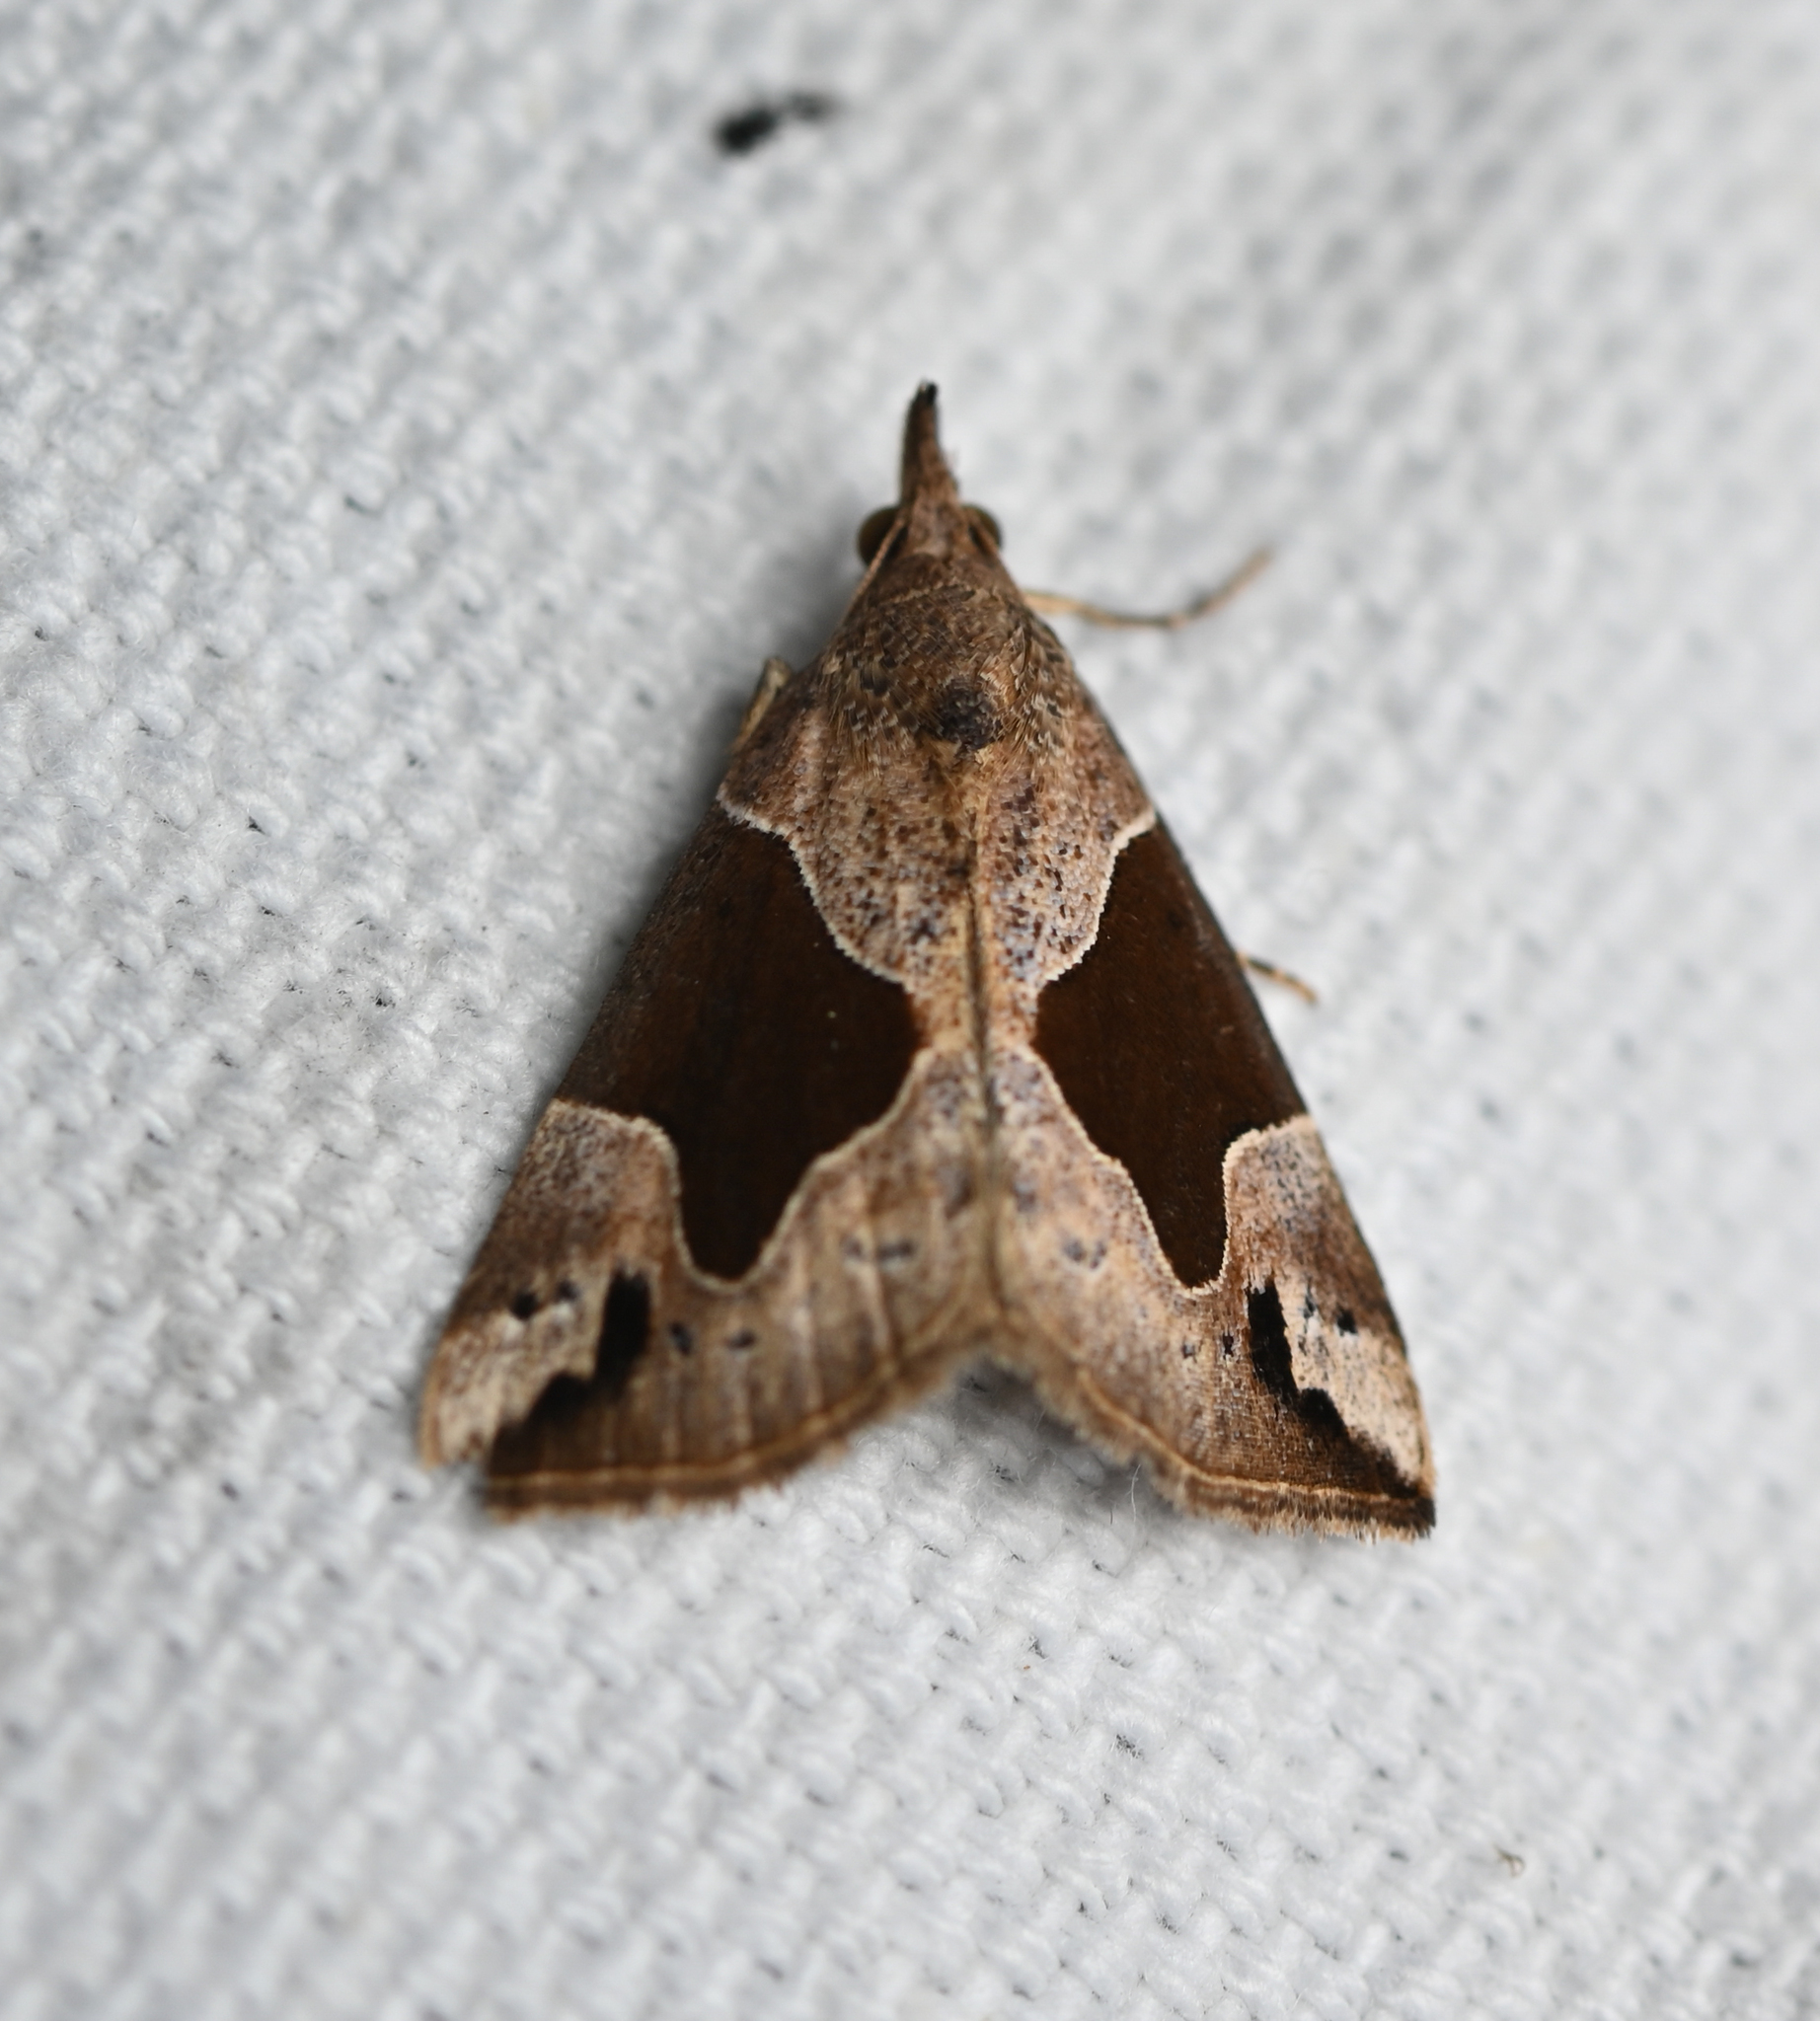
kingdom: Animalia
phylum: Arthropoda
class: Insecta
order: Lepidoptera
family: Erebidae
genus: Hypena
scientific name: Hypena manalis
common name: Flowing-line bomolocha moth
